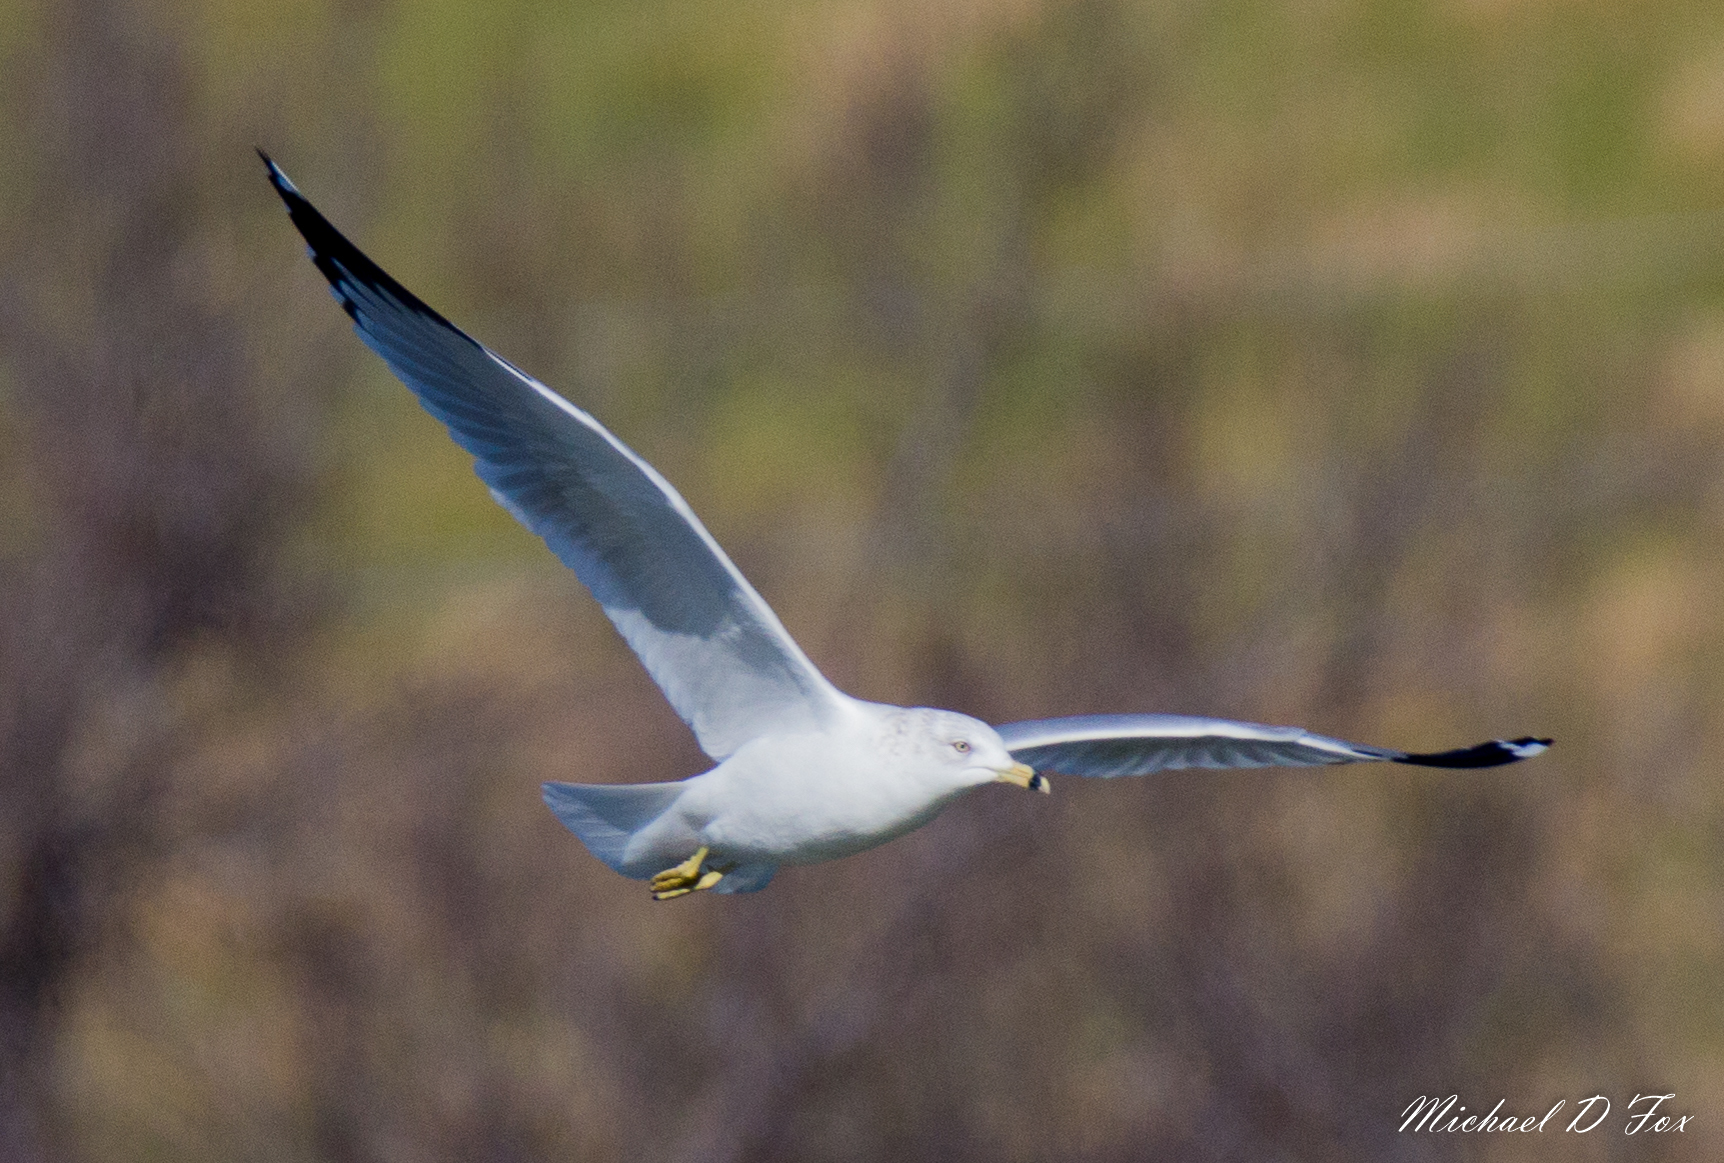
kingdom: Animalia
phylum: Chordata
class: Aves
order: Charadriiformes
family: Laridae
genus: Larus
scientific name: Larus delawarensis
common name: Ring-billed gull
